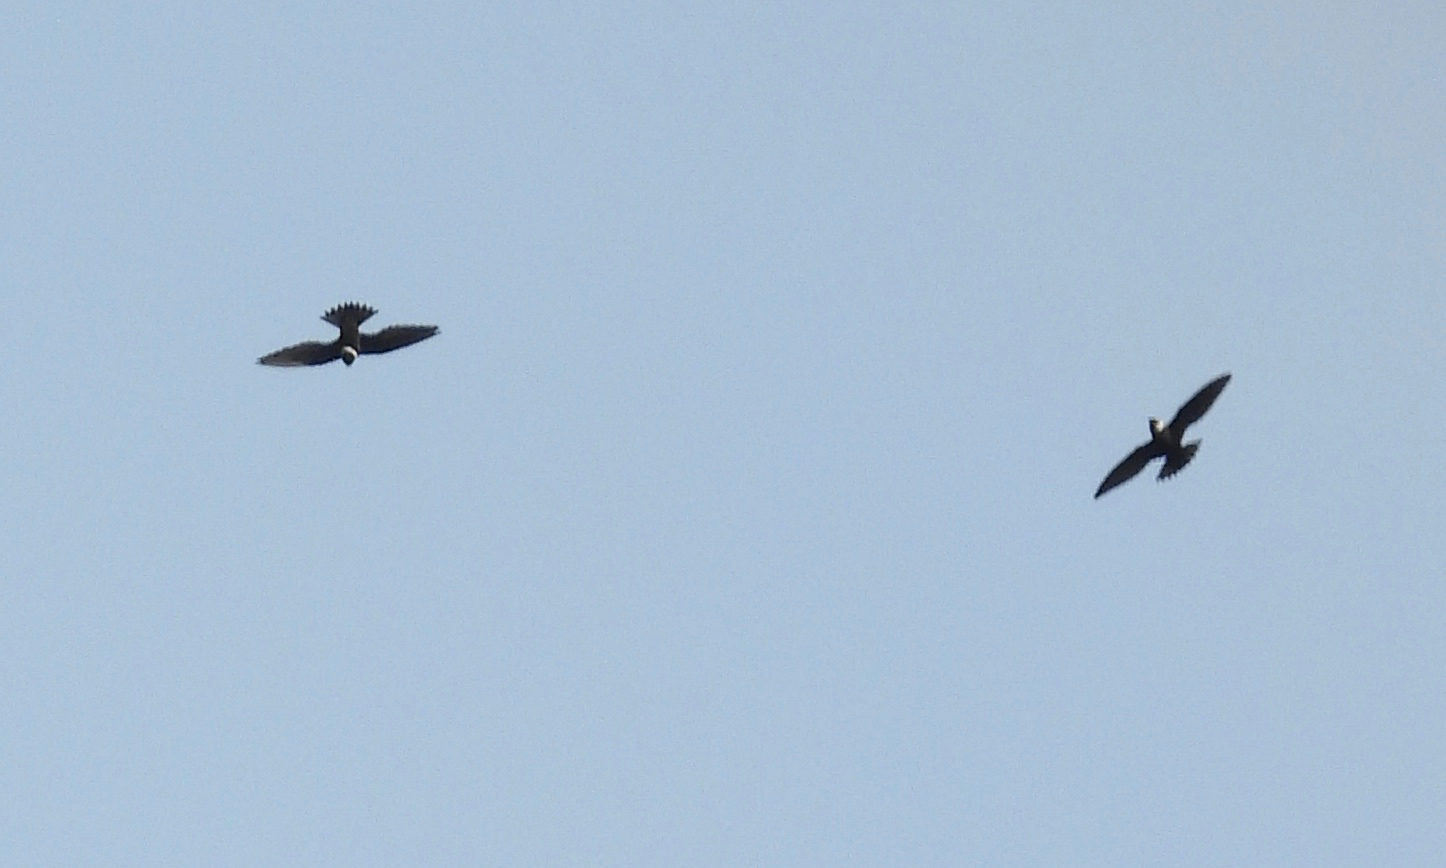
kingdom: Animalia
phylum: Chordata
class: Aves
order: Apodiformes
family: Apodidae
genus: Streptoprocne
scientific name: Streptoprocne zonaris
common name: White-collared swift
